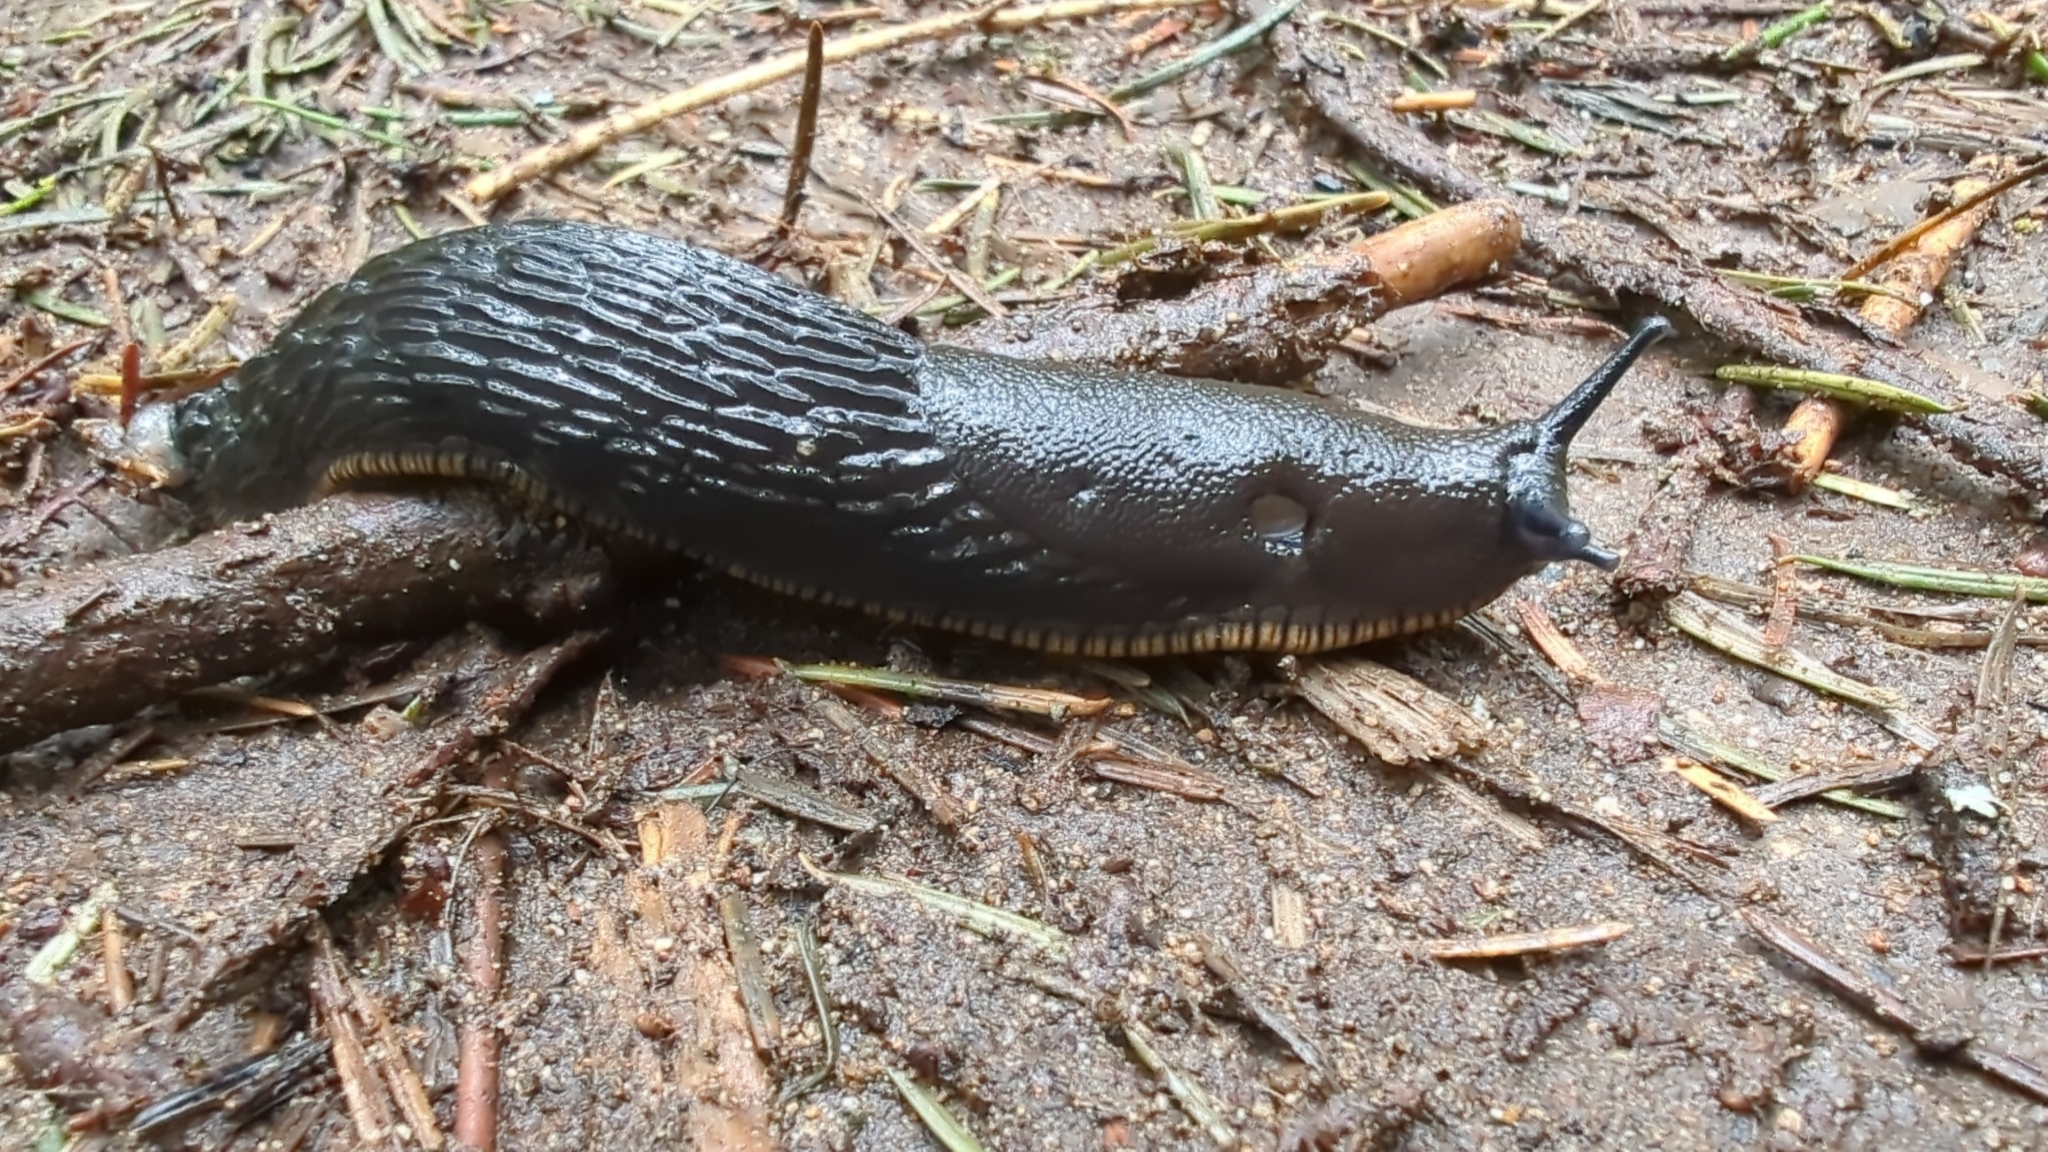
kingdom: Animalia
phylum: Mollusca
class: Gastropoda
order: Stylommatophora
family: Arionidae
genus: Arion
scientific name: Arion
